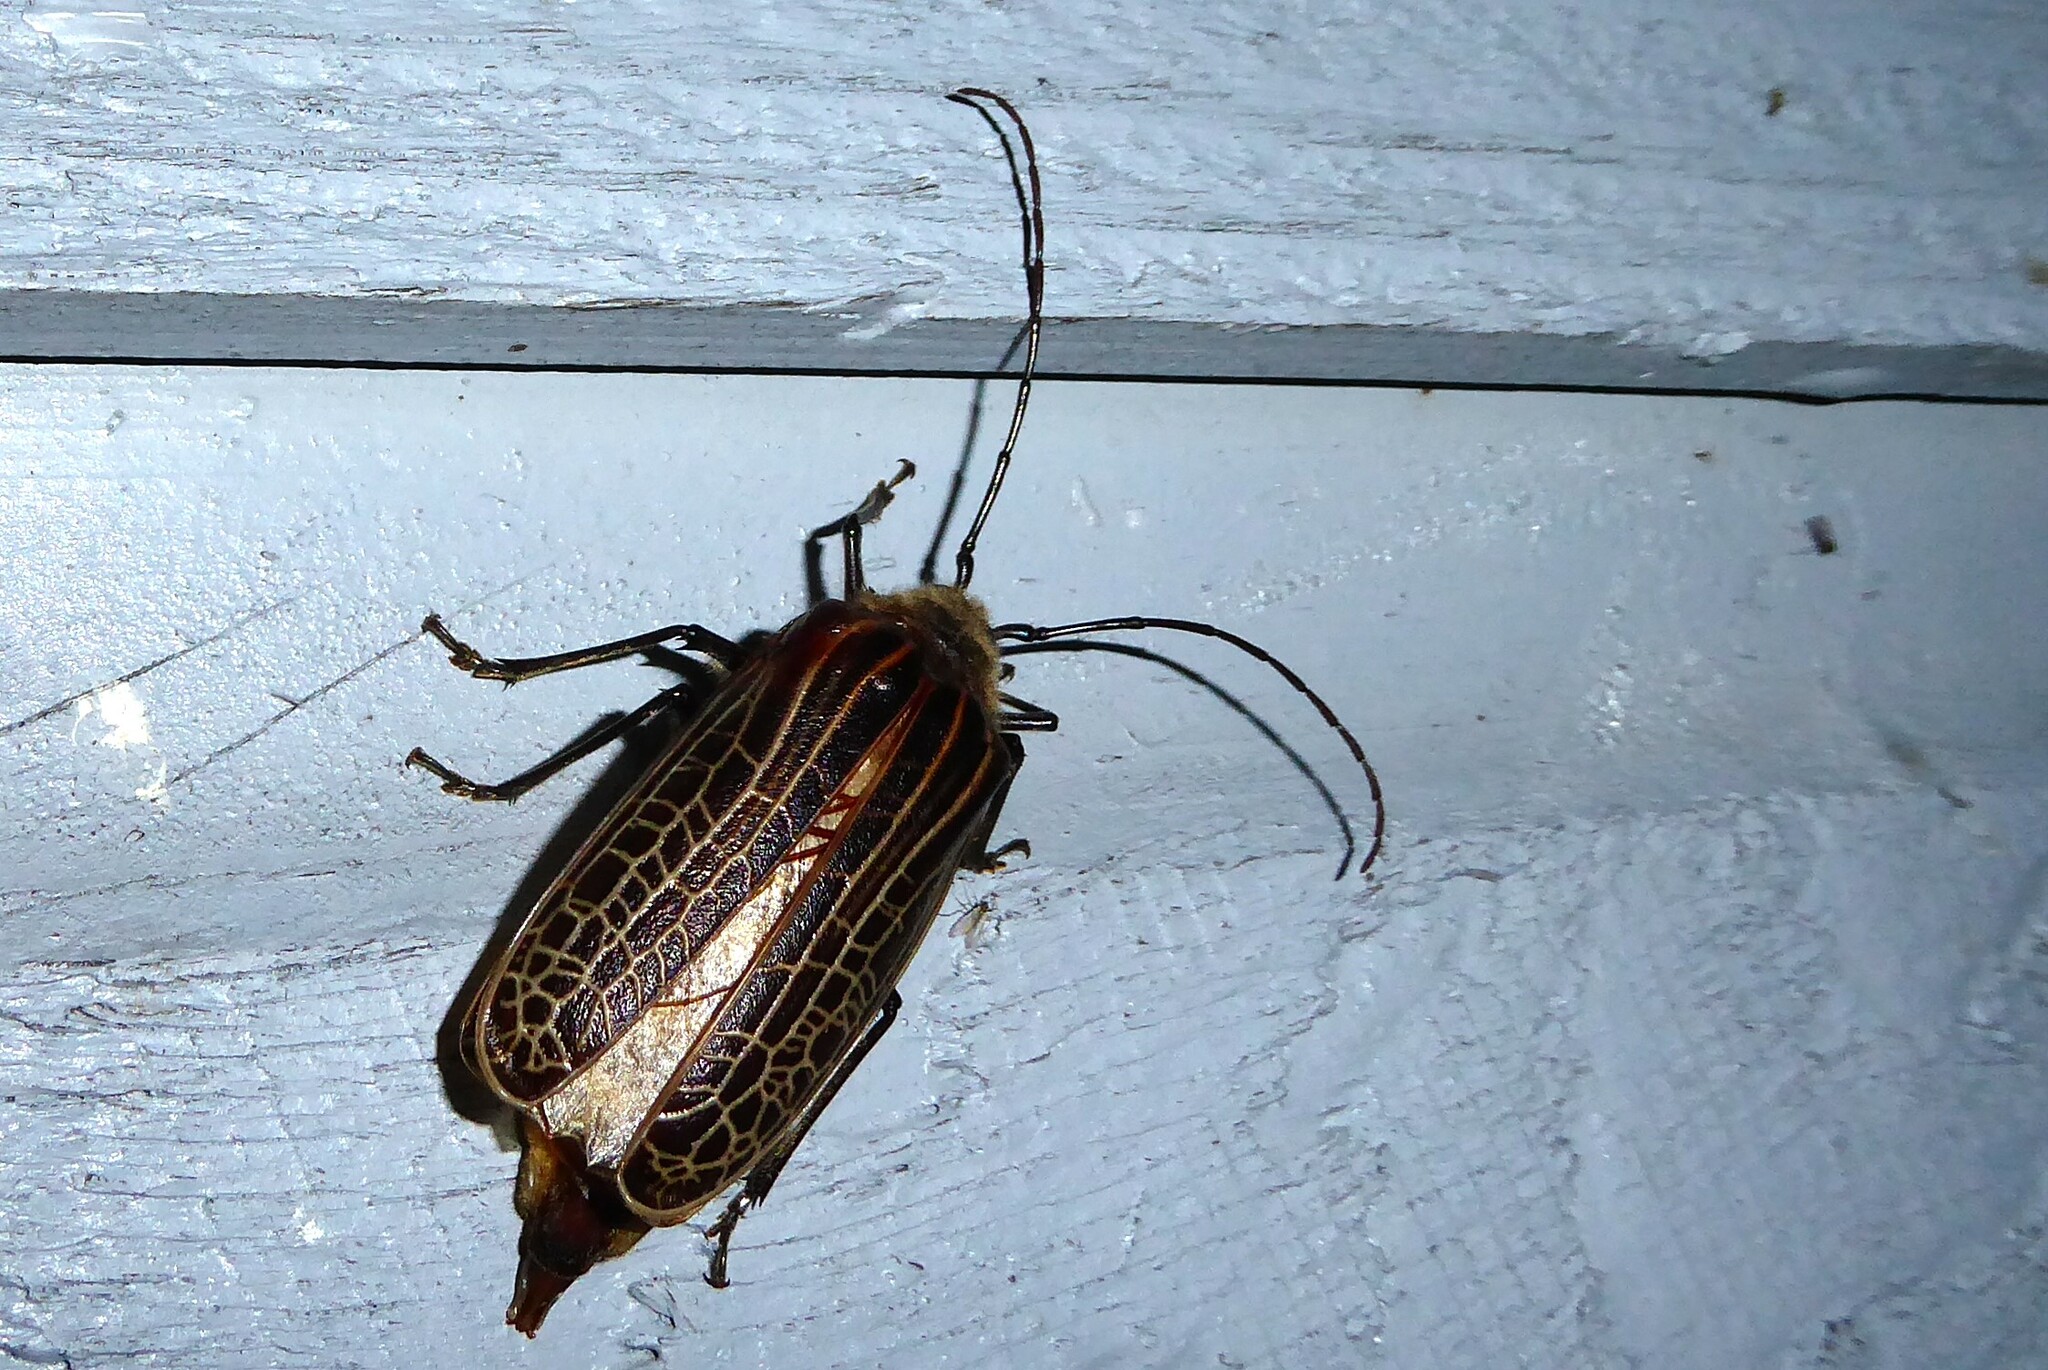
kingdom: Animalia
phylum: Arthropoda
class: Insecta
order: Coleoptera
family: Cerambycidae
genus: Prionoplus
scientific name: Prionoplus reticularis
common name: Huhu beetle
